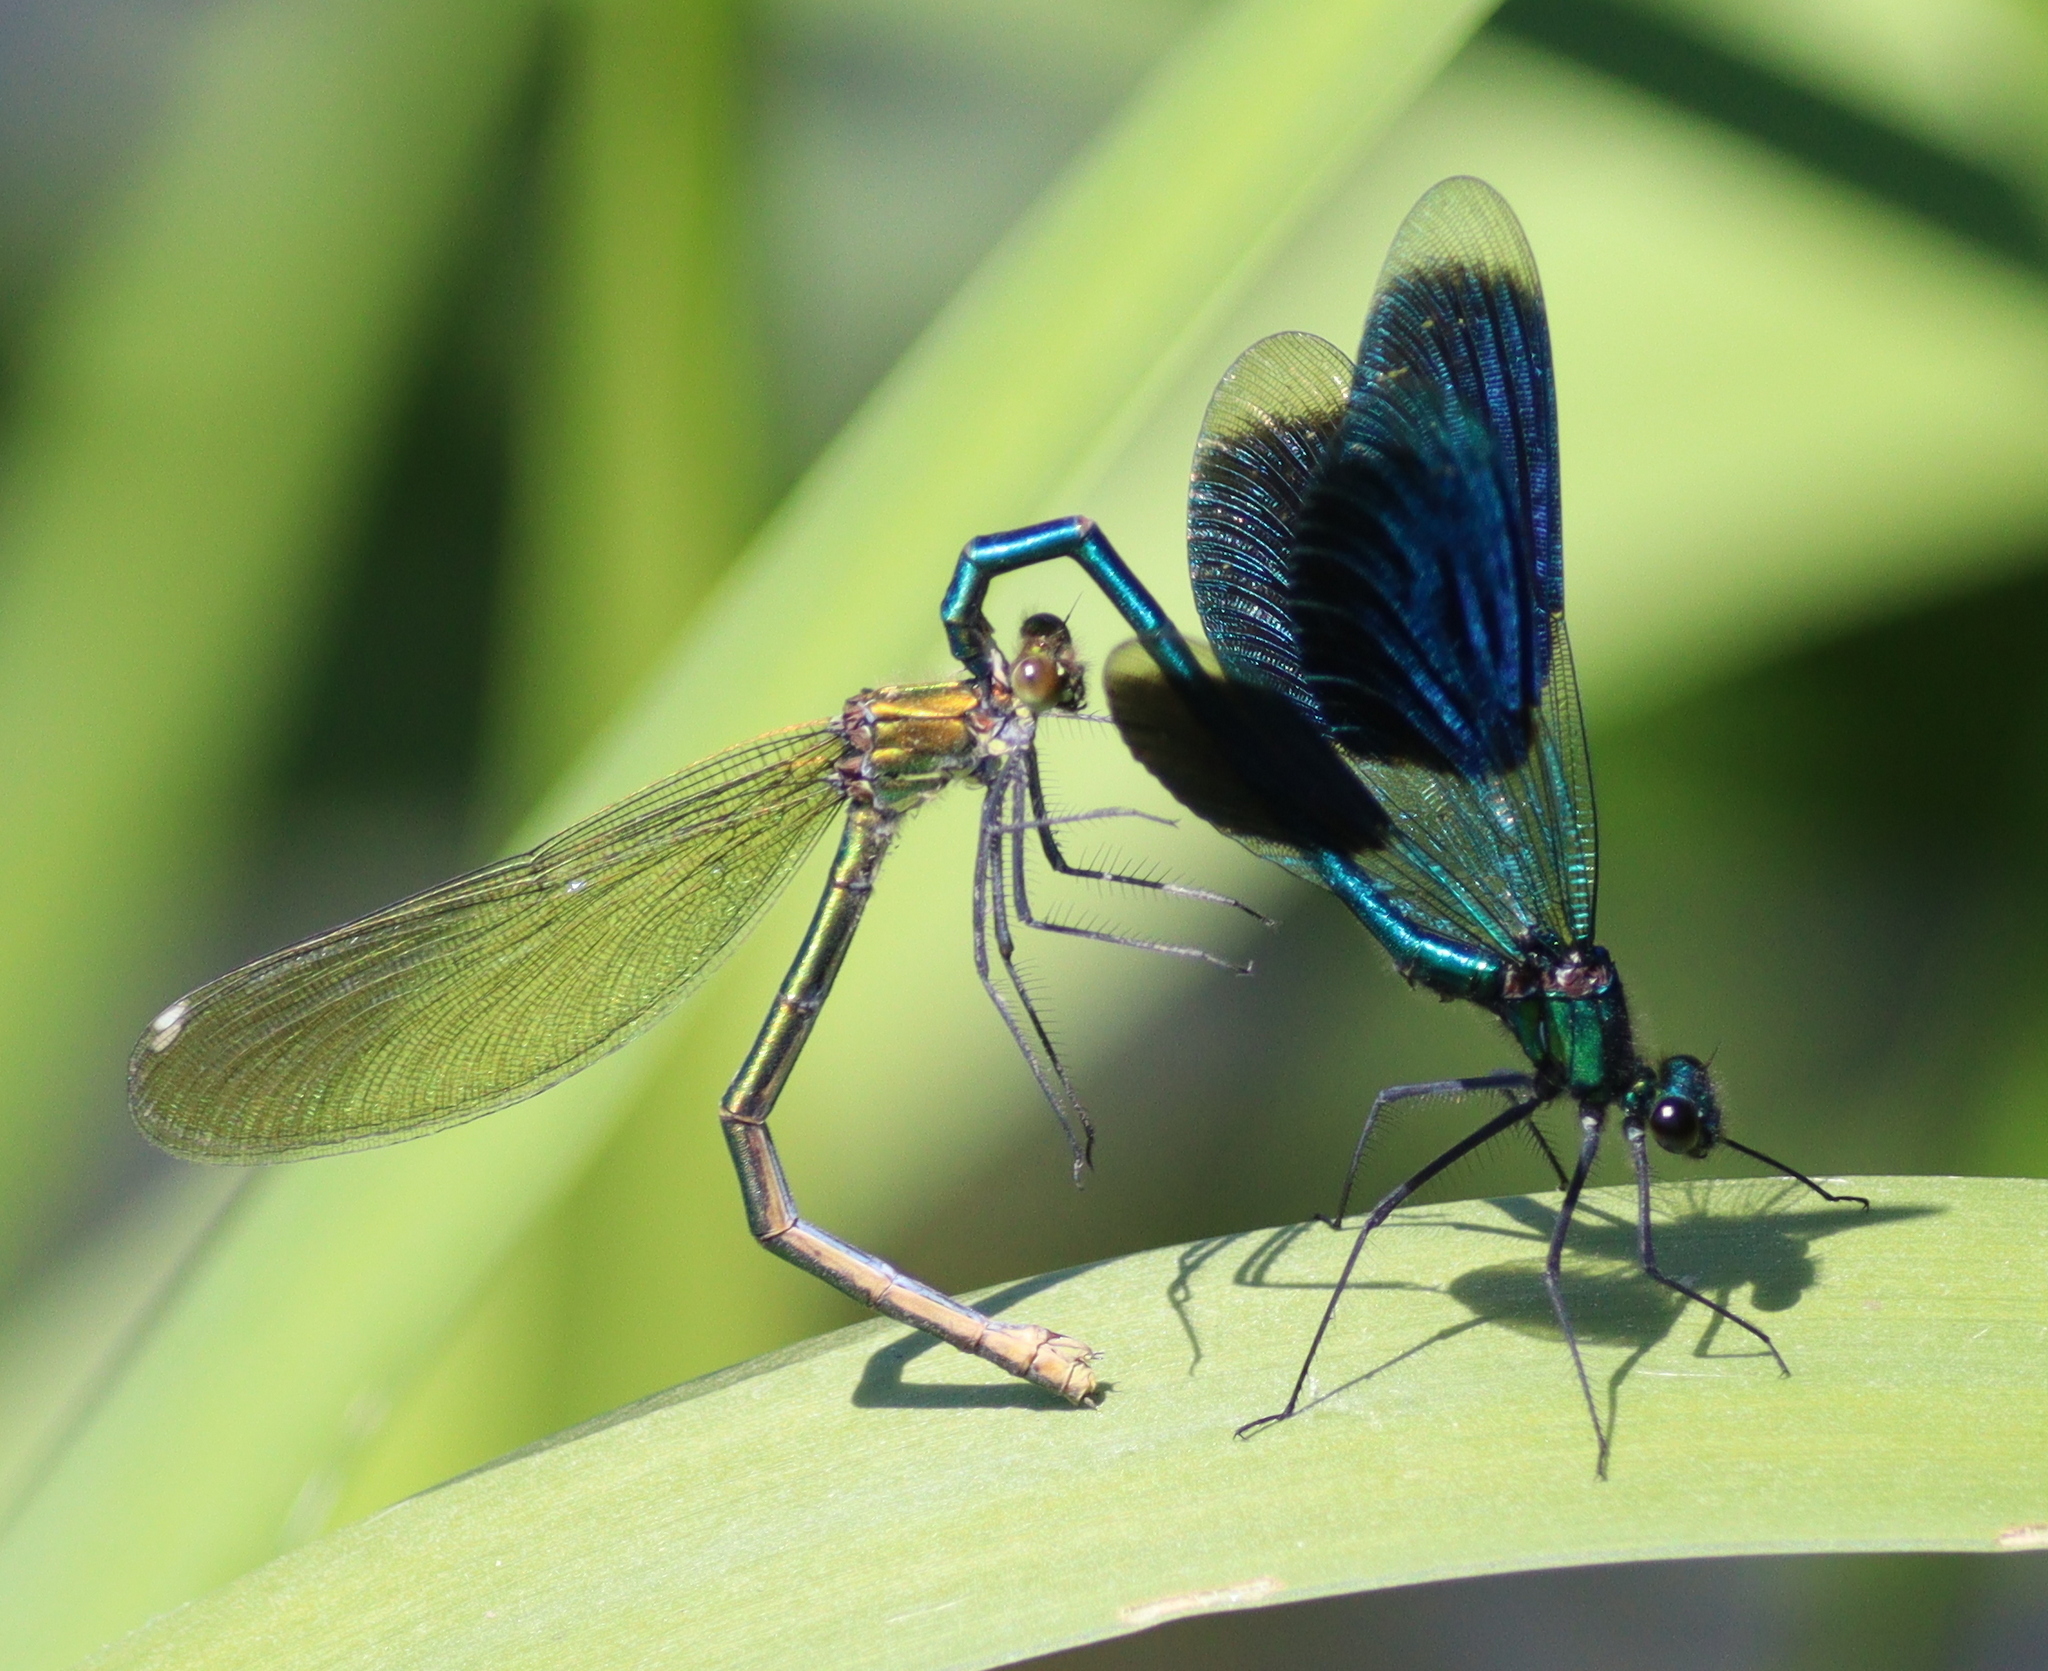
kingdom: Animalia
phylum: Arthropoda
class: Insecta
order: Odonata
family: Calopterygidae
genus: Calopteryx
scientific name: Calopteryx splendens
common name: Banded demoiselle
